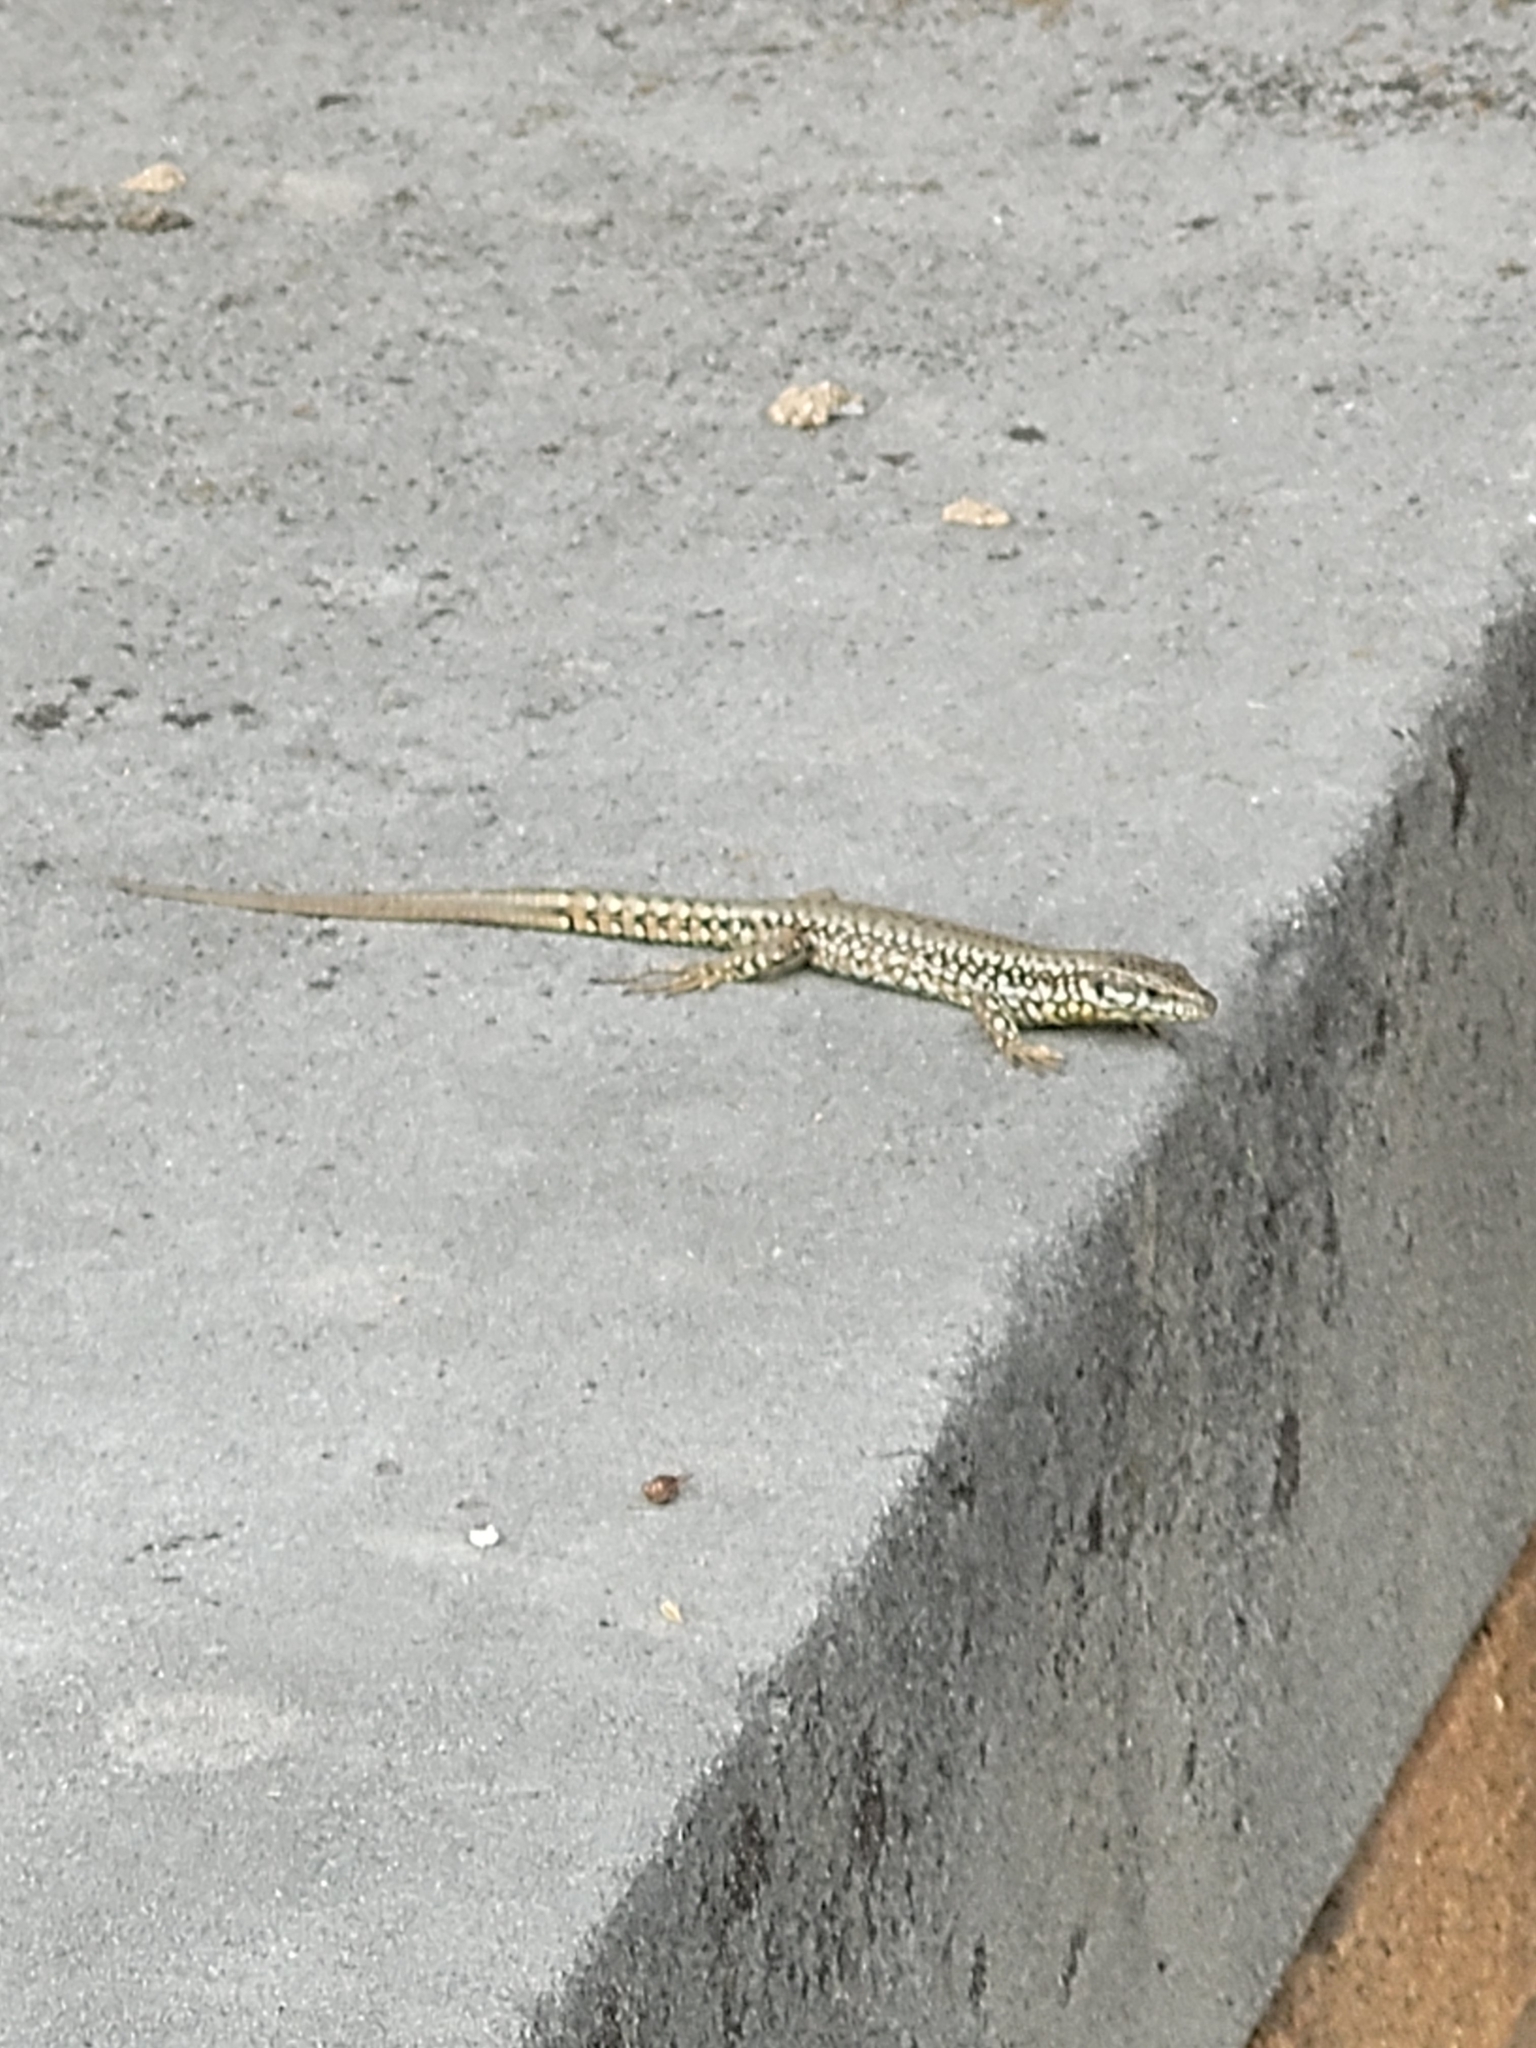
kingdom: Animalia
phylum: Chordata
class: Squamata
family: Lacertidae
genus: Podarcis
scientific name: Podarcis muralis
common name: Common wall lizard
